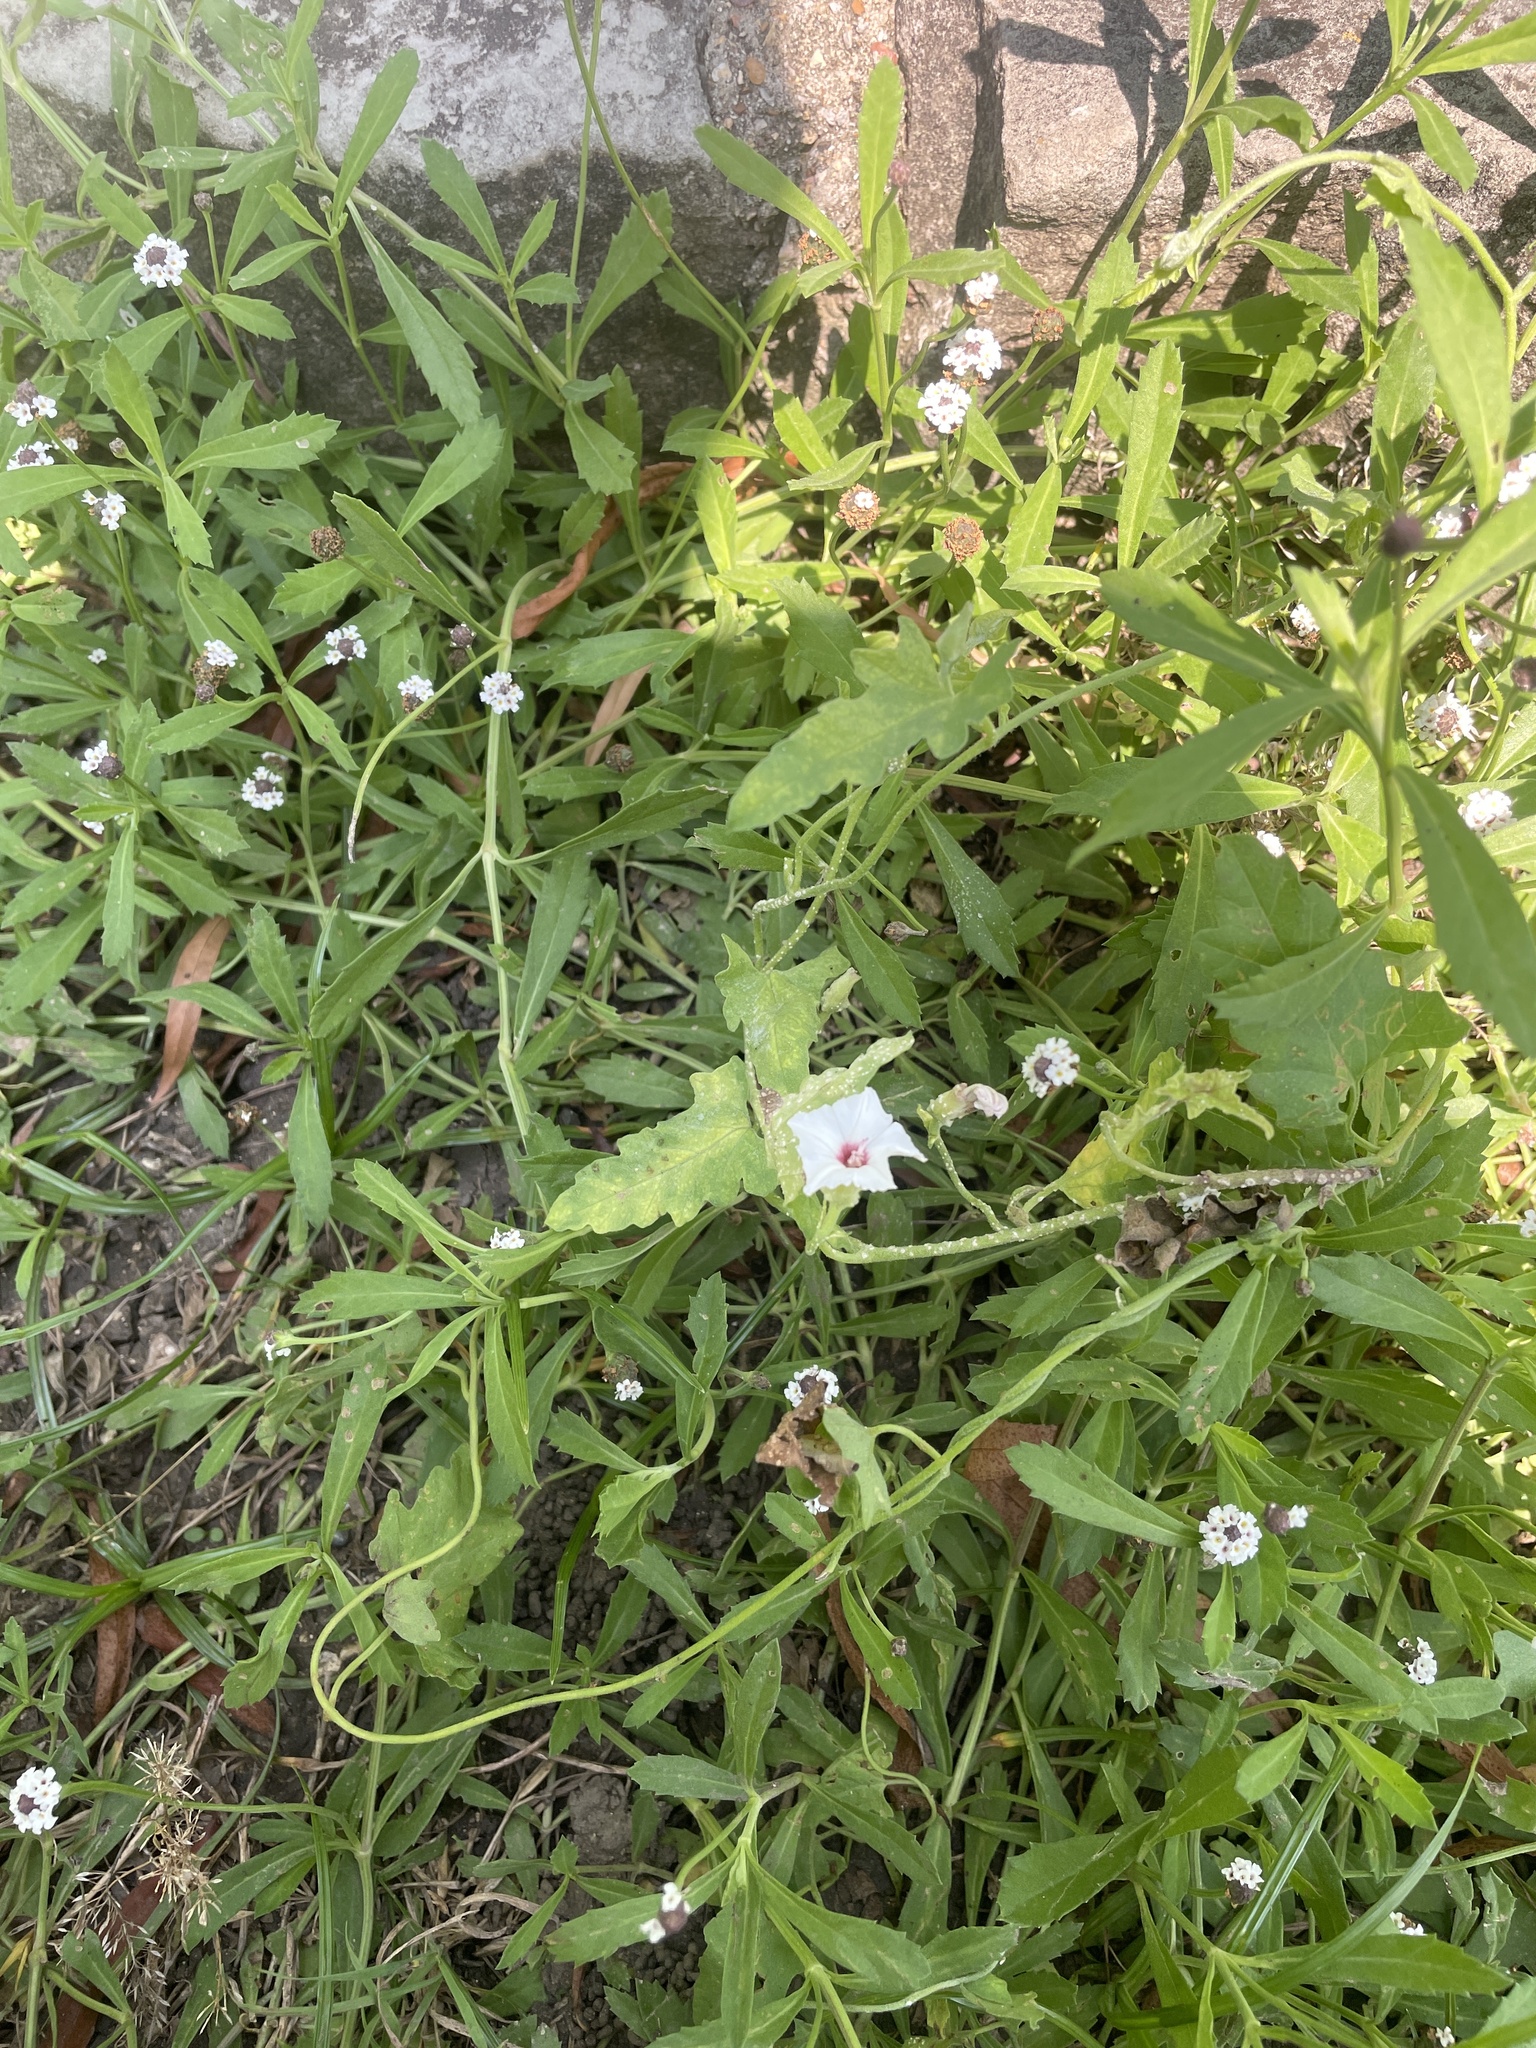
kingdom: Plantae
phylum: Tracheophyta
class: Magnoliopsida
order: Solanales
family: Convolvulaceae
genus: Convolvulus
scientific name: Convolvulus equitans
